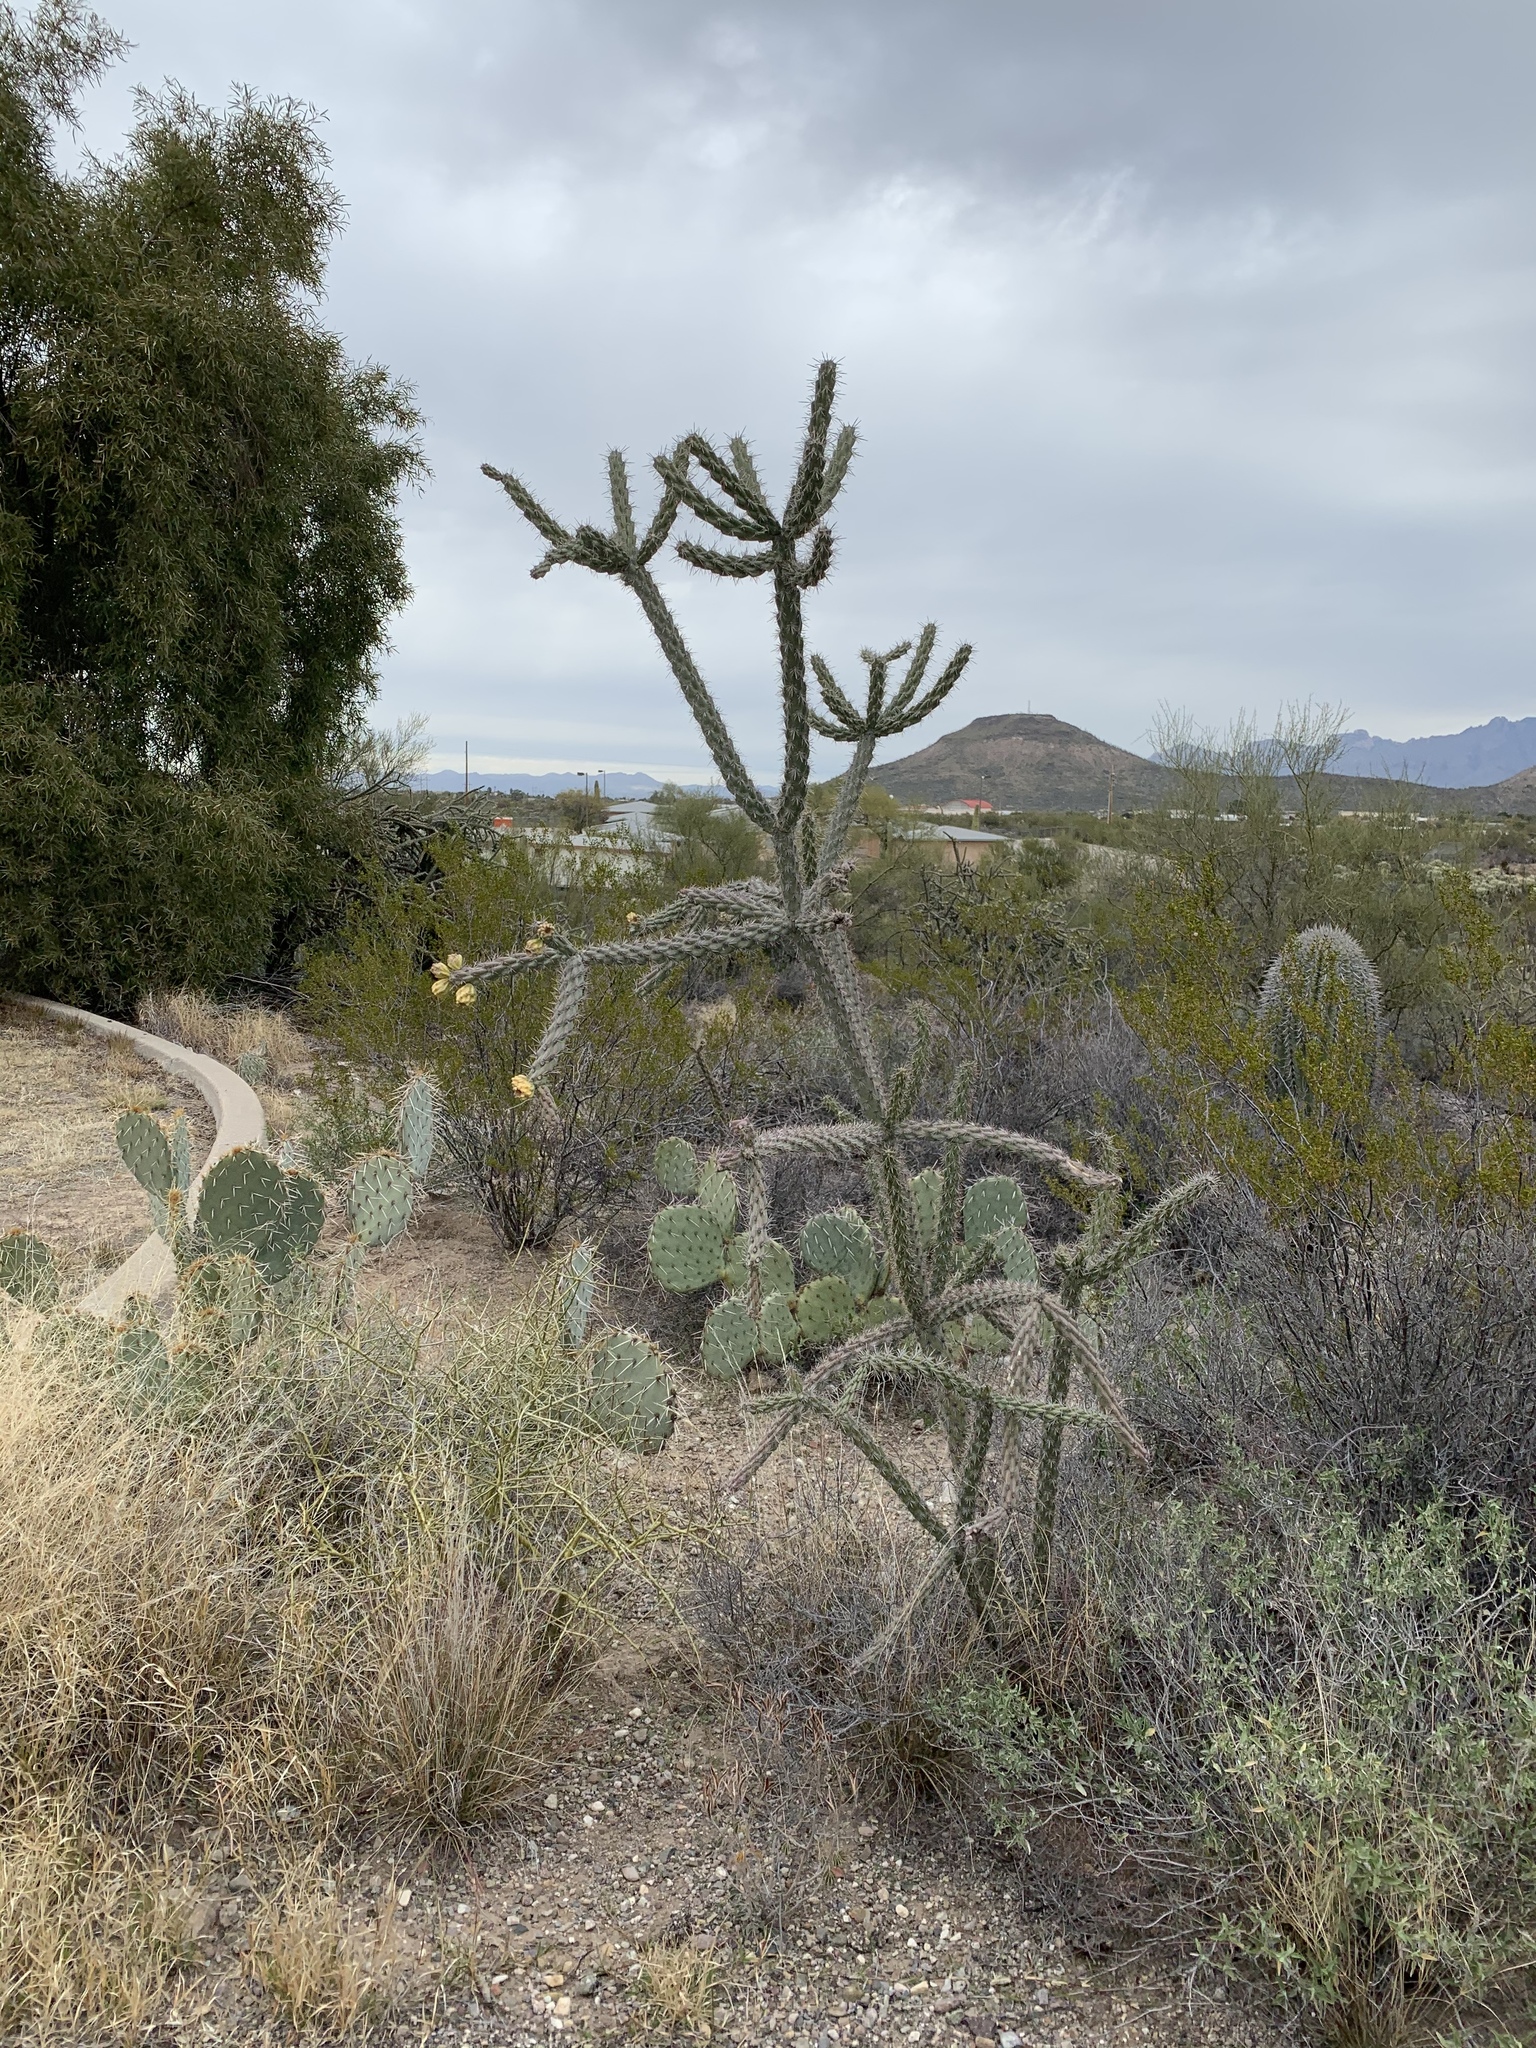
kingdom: Plantae
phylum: Tracheophyta
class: Magnoliopsida
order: Caryophyllales
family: Cactaceae
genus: Cylindropuntia
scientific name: Cylindropuntia imbricata
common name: Candelabrum cactus
